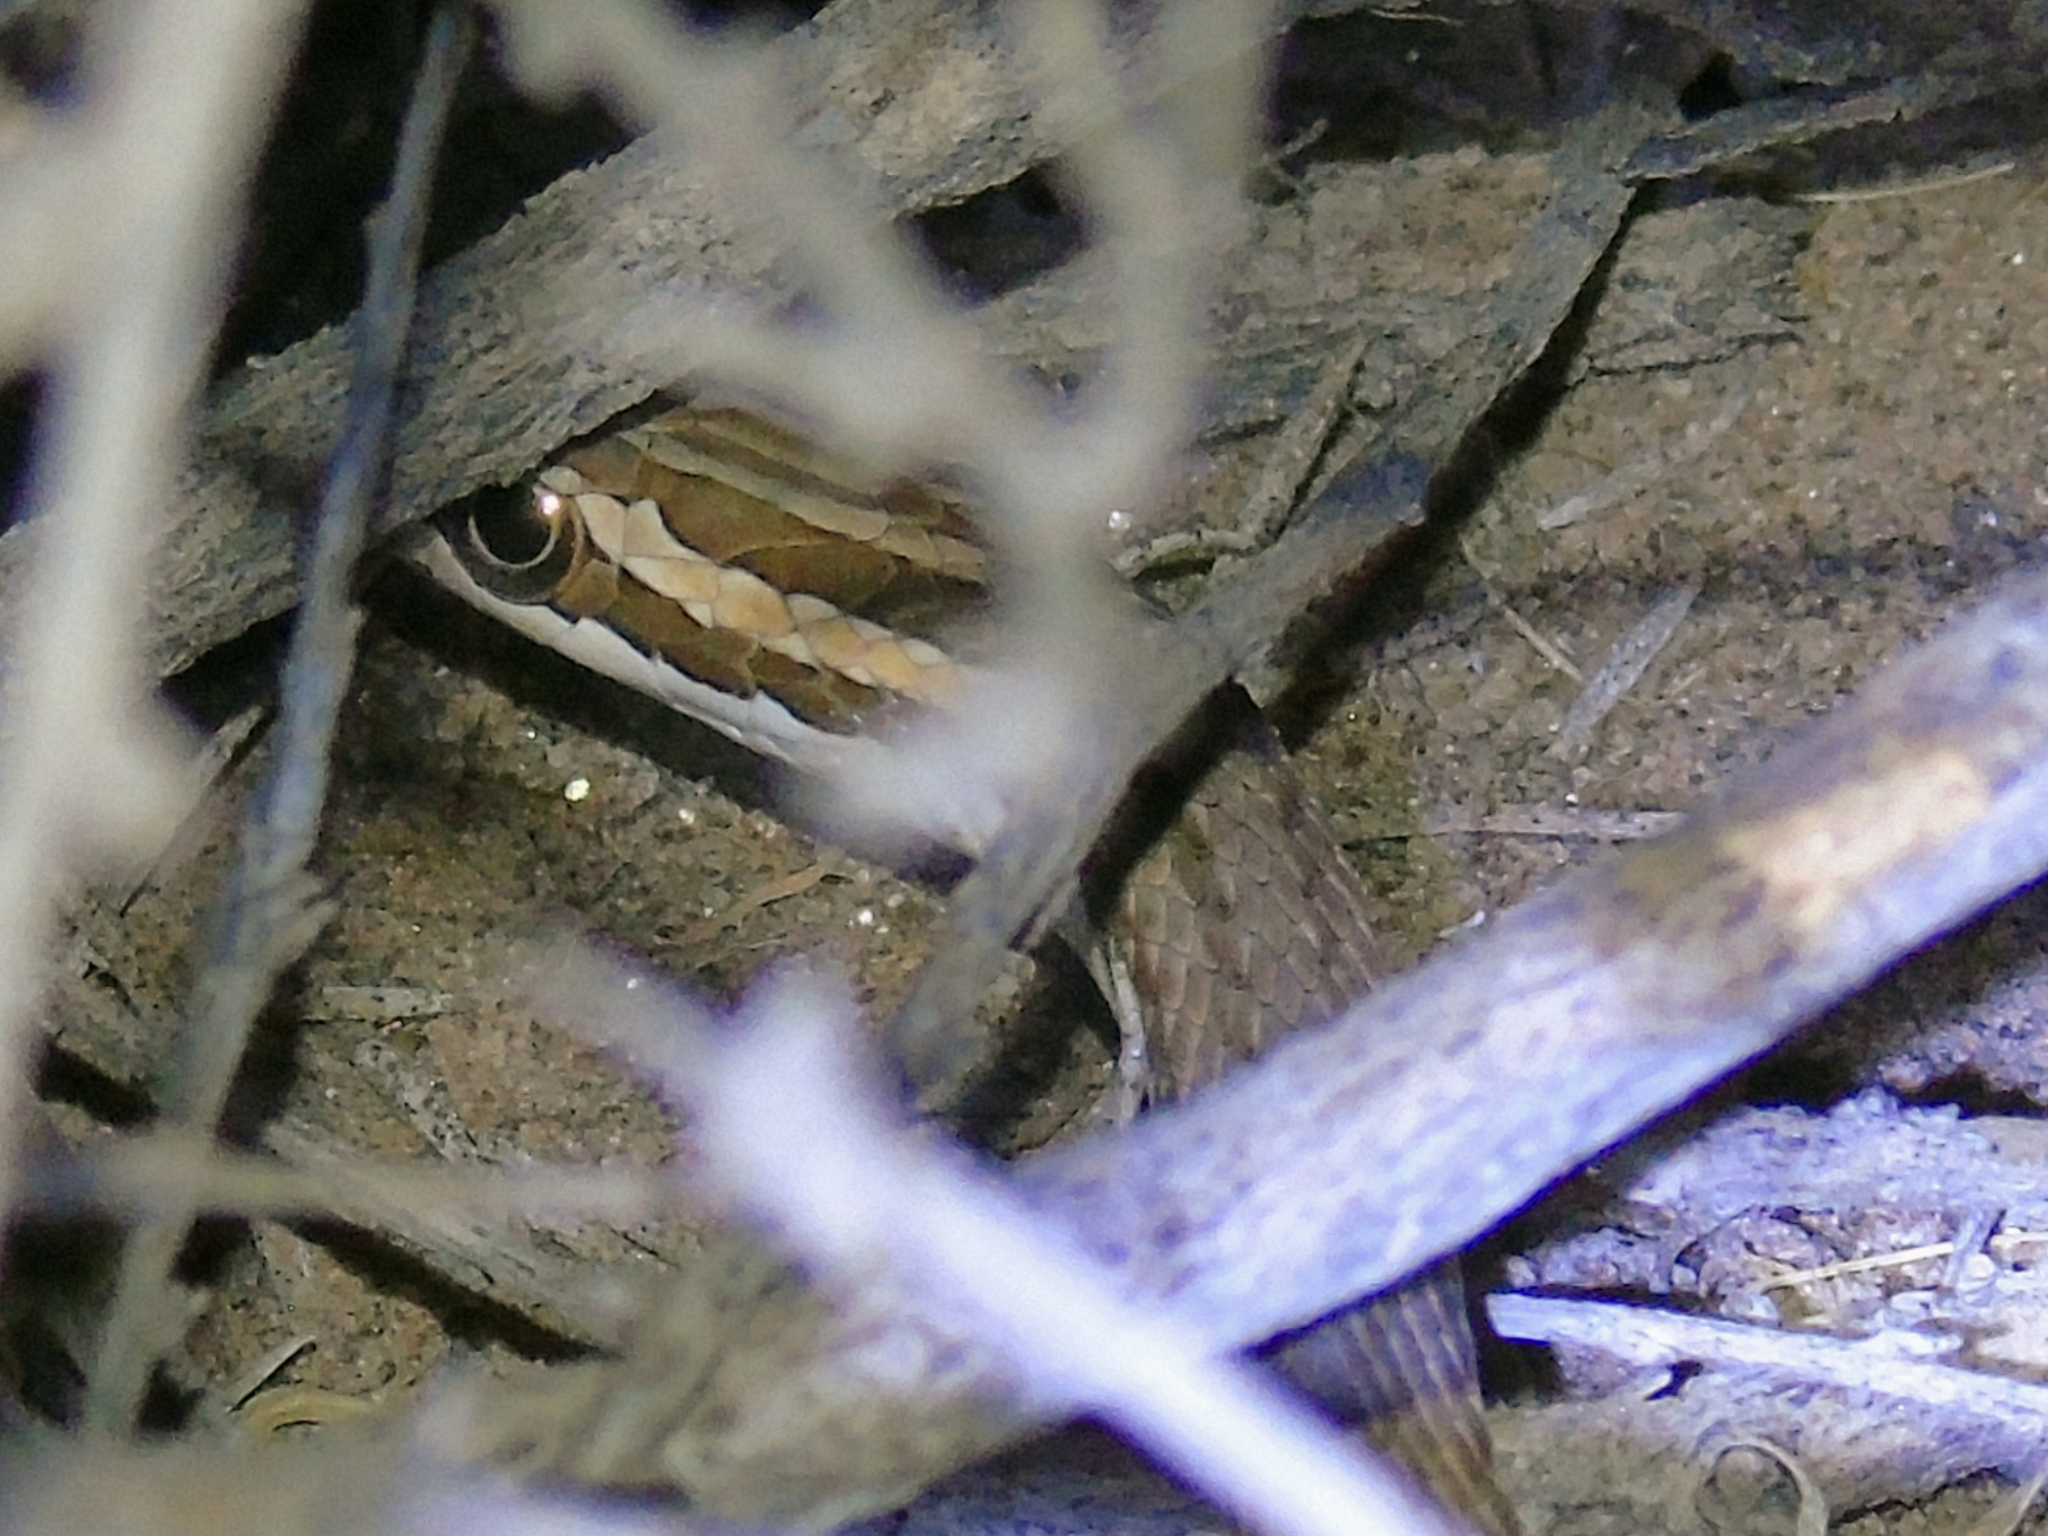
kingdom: Animalia
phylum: Chordata
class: Squamata
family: Psammophiidae
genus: Psammophis
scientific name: Psammophis lineolatus
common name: Steppe ribbon racer
